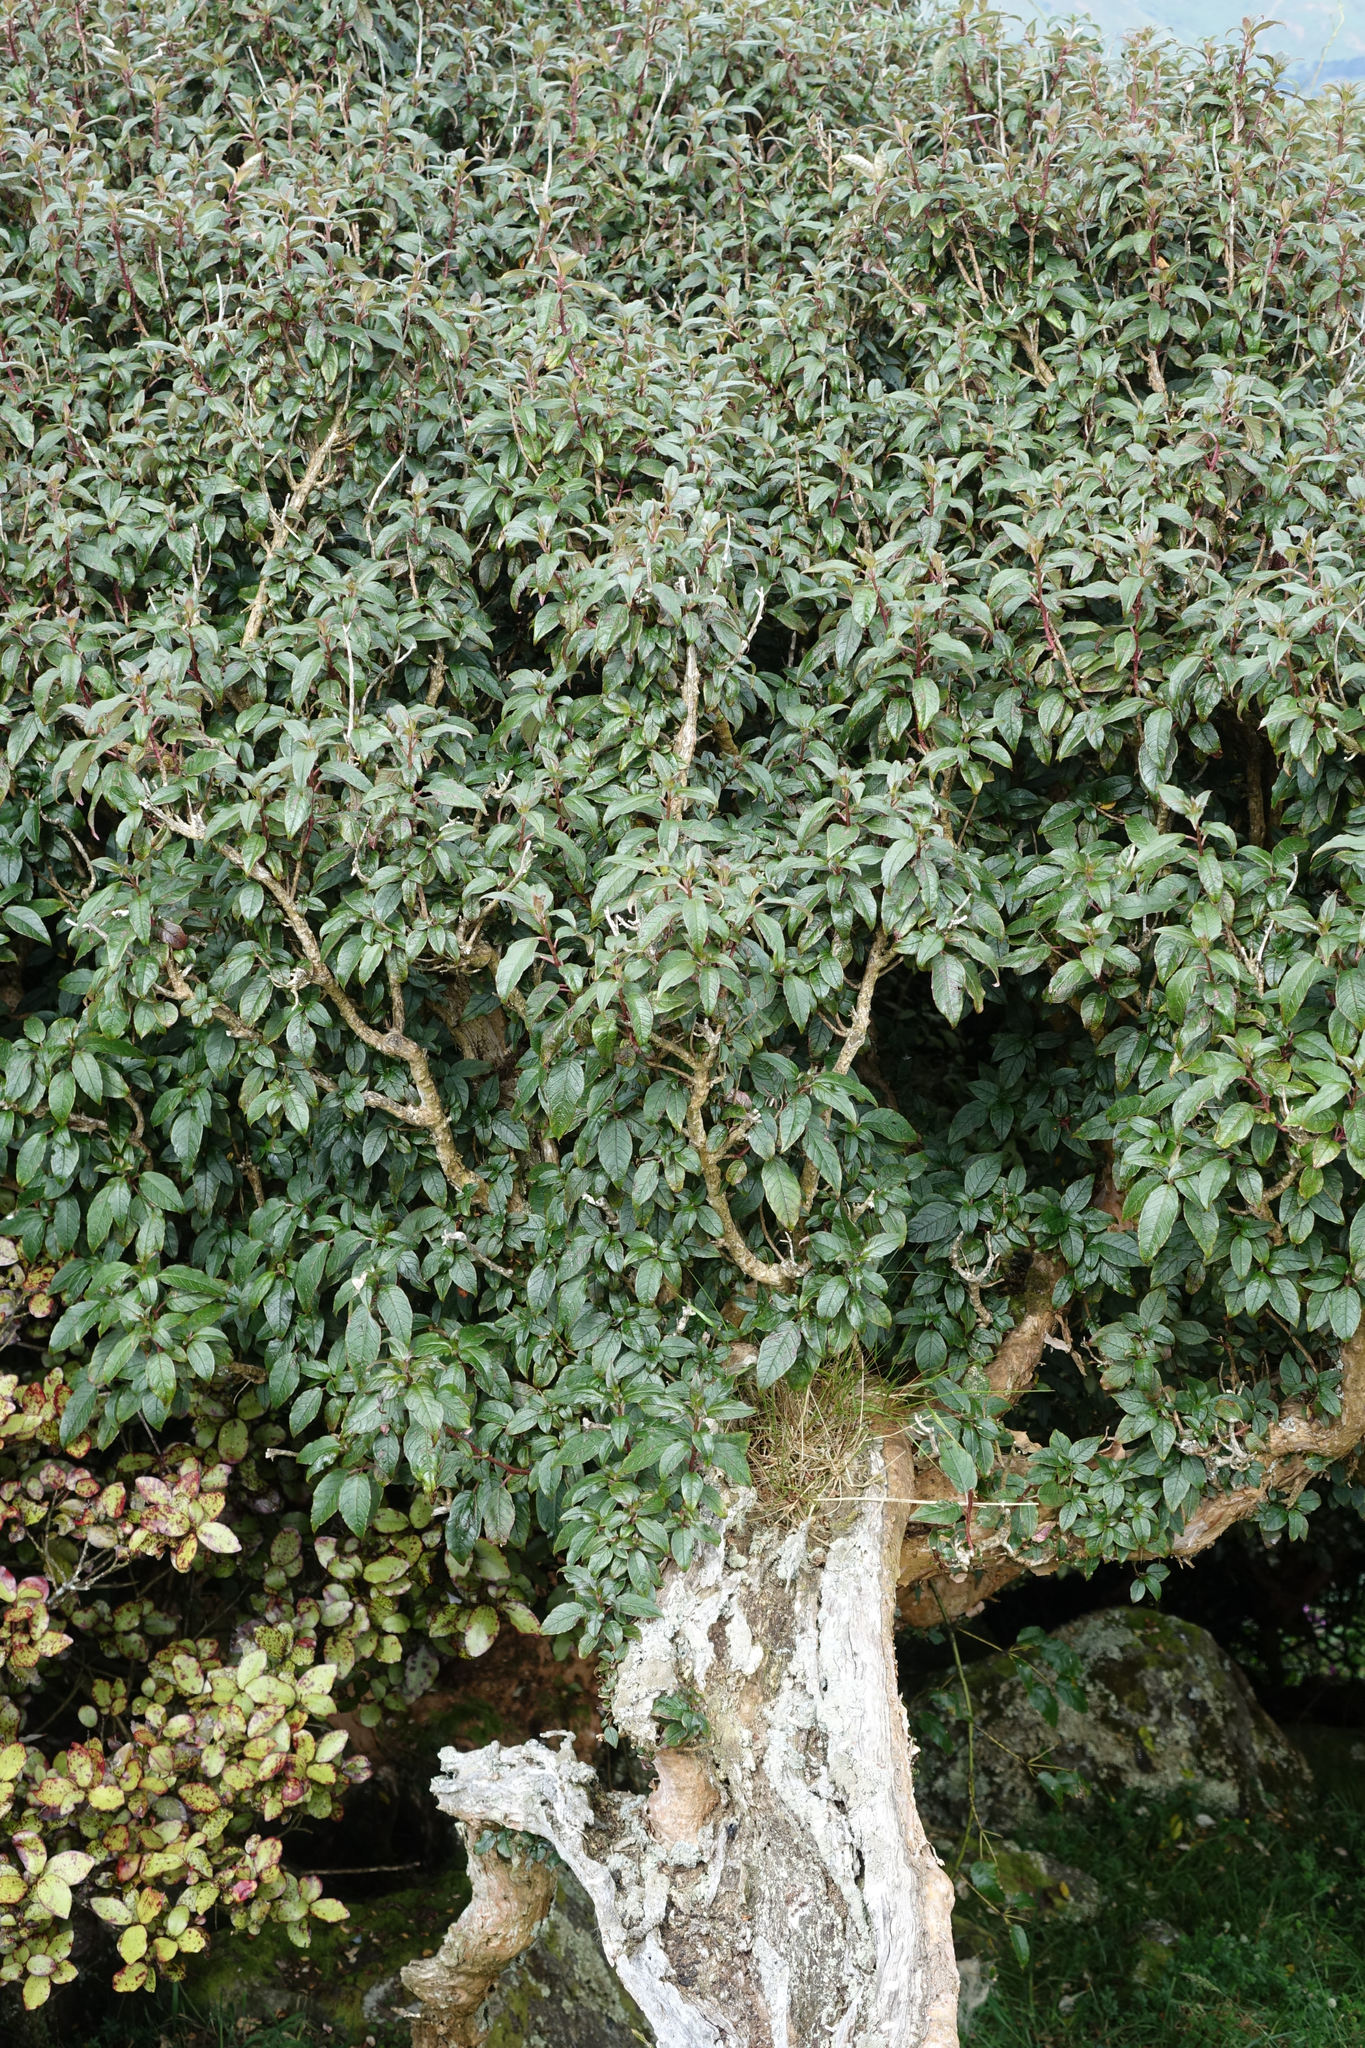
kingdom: Plantae
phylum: Tracheophyta
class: Magnoliopsida
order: Myrtales
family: Onagraceae
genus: Fuchsia
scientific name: Fuchsia excorticata
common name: Tree fuchsia
